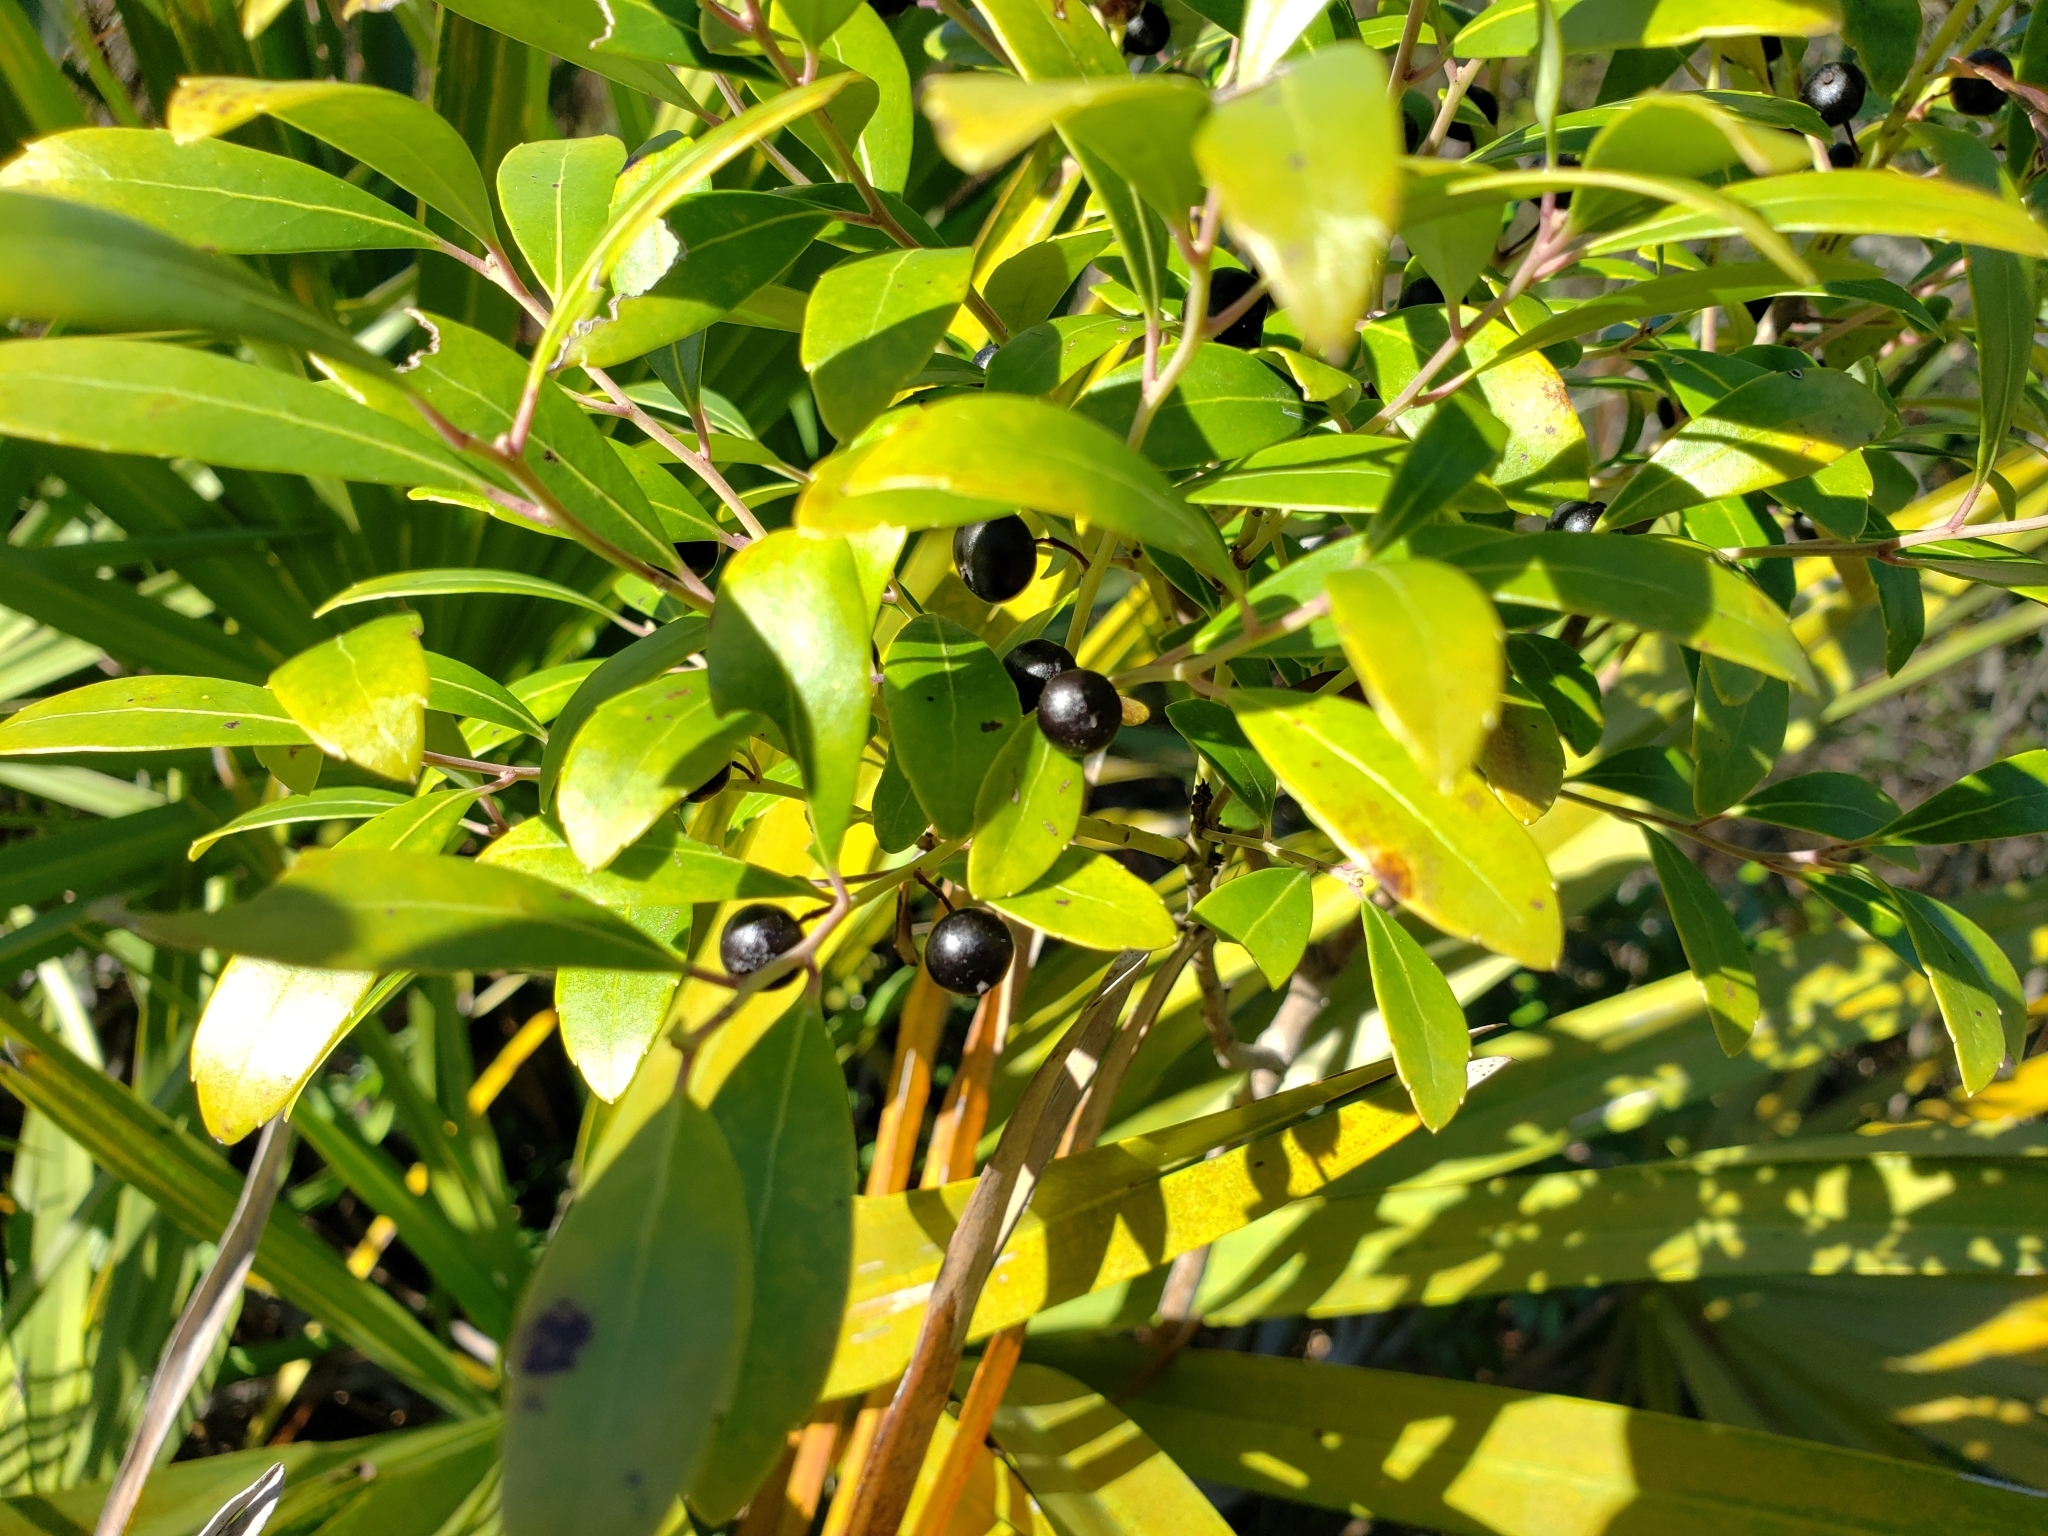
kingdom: Plantae
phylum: Tracheophyta
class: Magnoliopsida
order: Aquifoliales
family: Aquifoliaceae
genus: Ilex
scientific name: Ilex glabra
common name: Bitter gallberry
